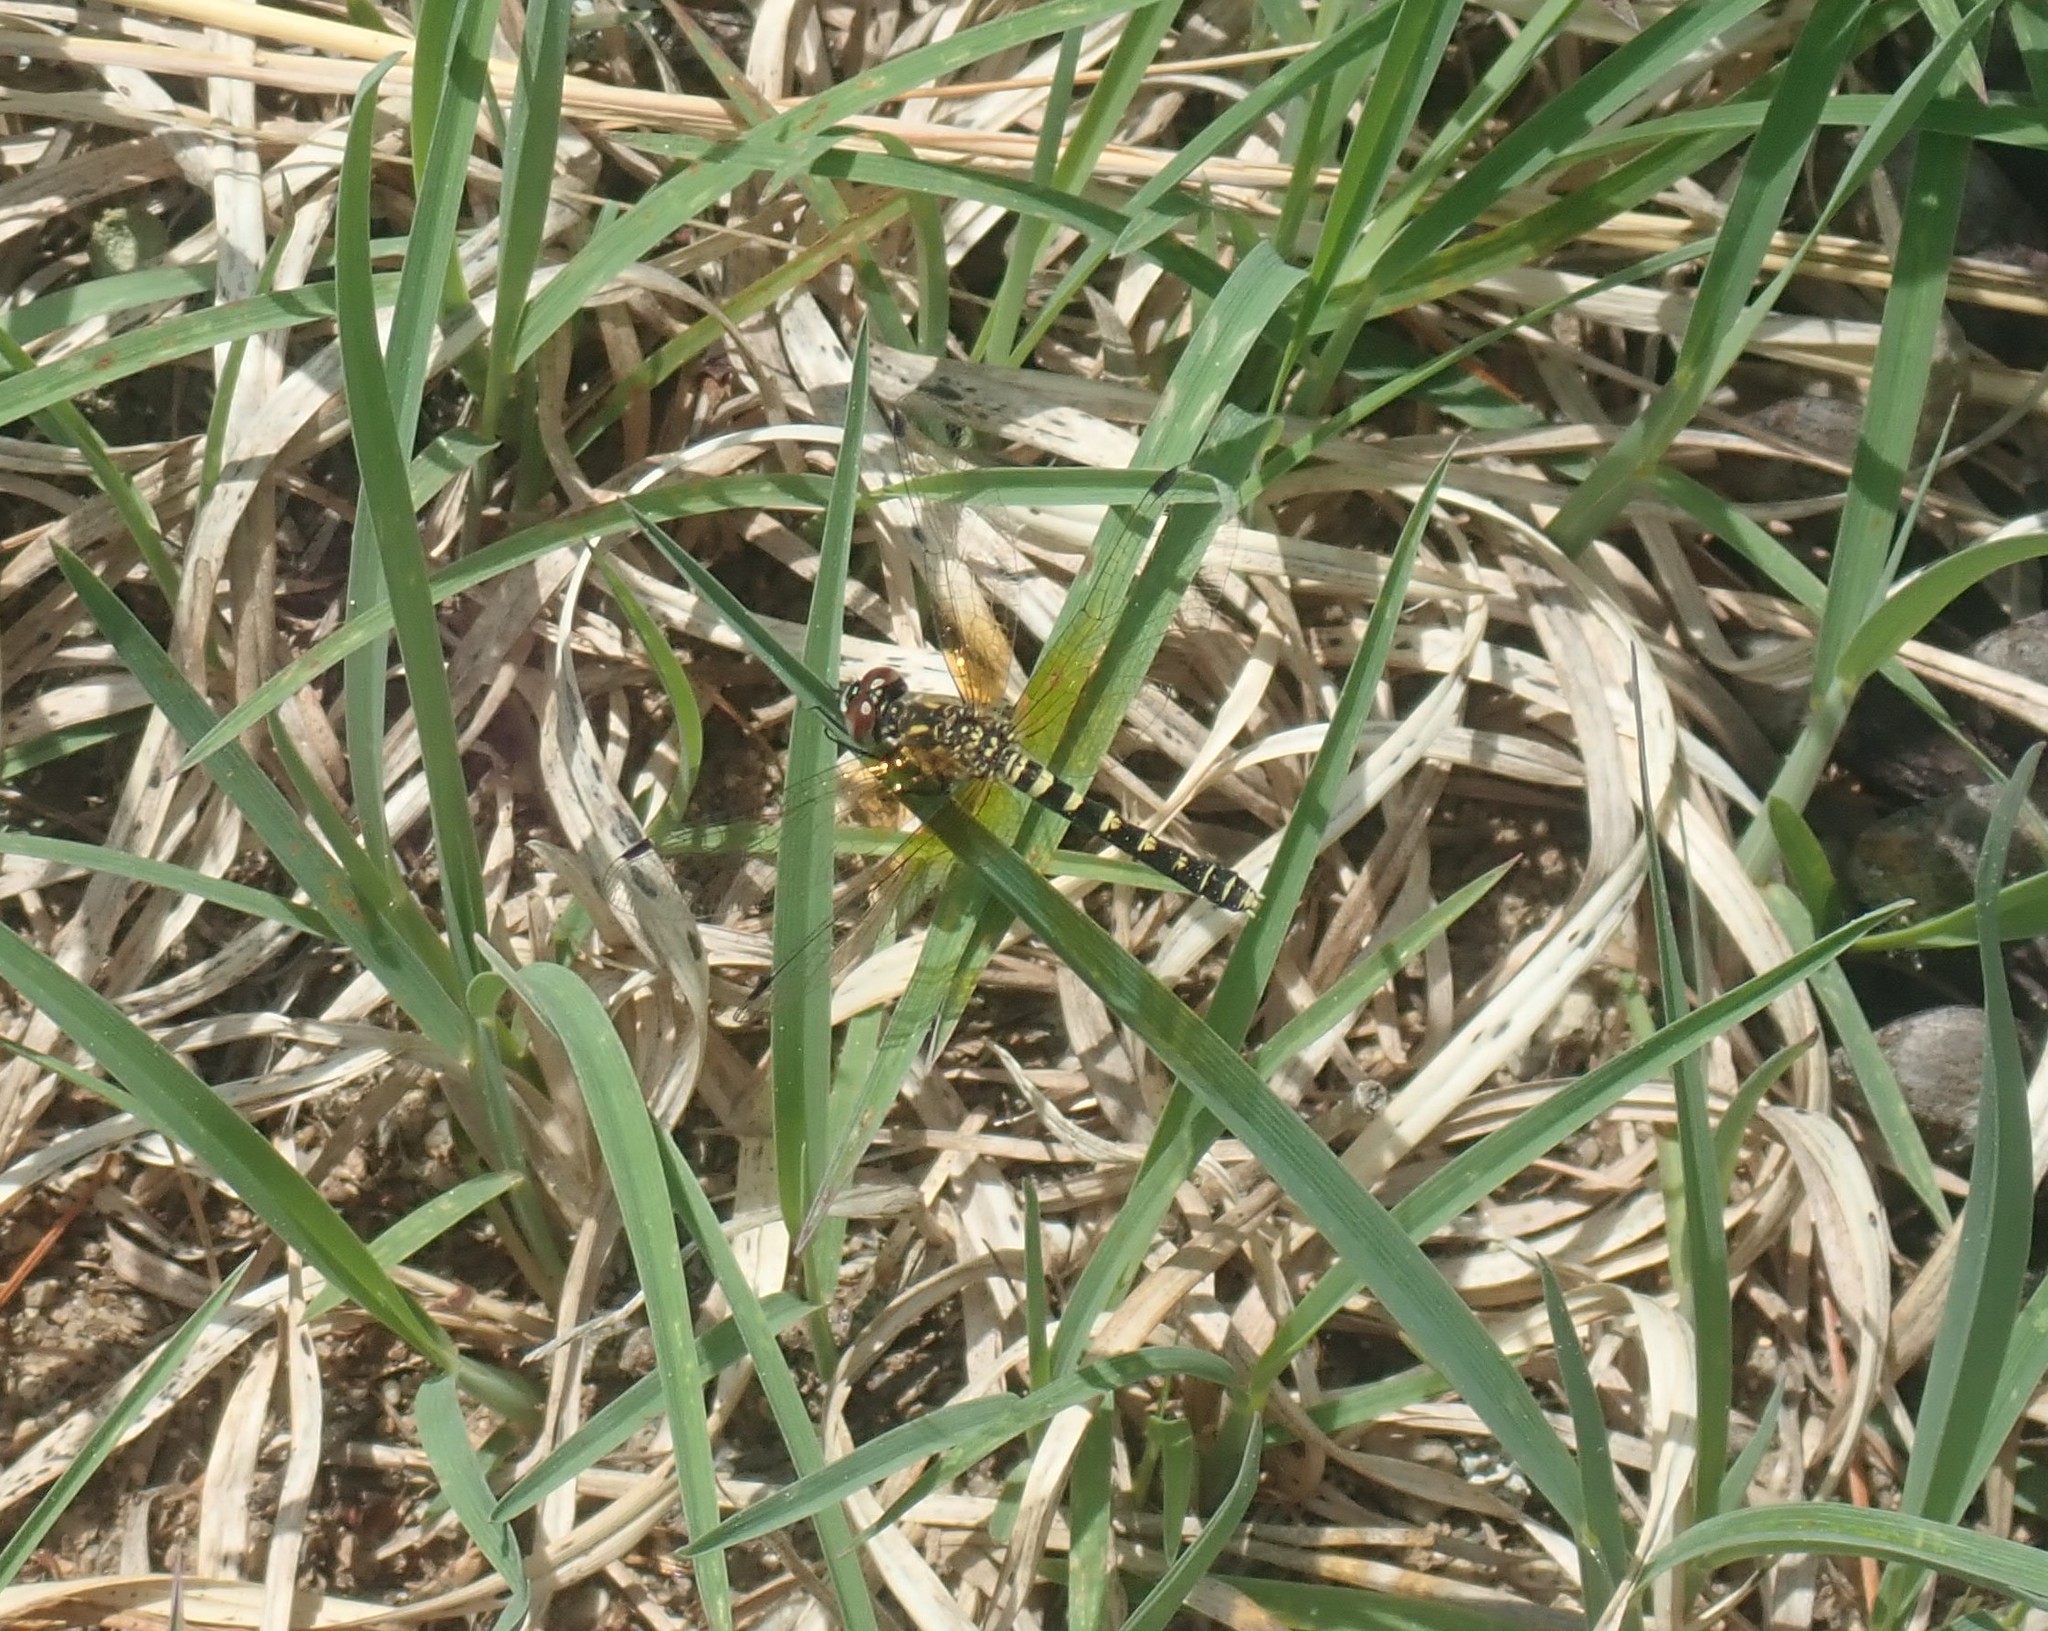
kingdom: Animalia
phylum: Arthropoda
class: Insecta
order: Odonata
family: Libellulidae
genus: Nannothemis
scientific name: Nannothemis bella
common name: Elfin skimmer
